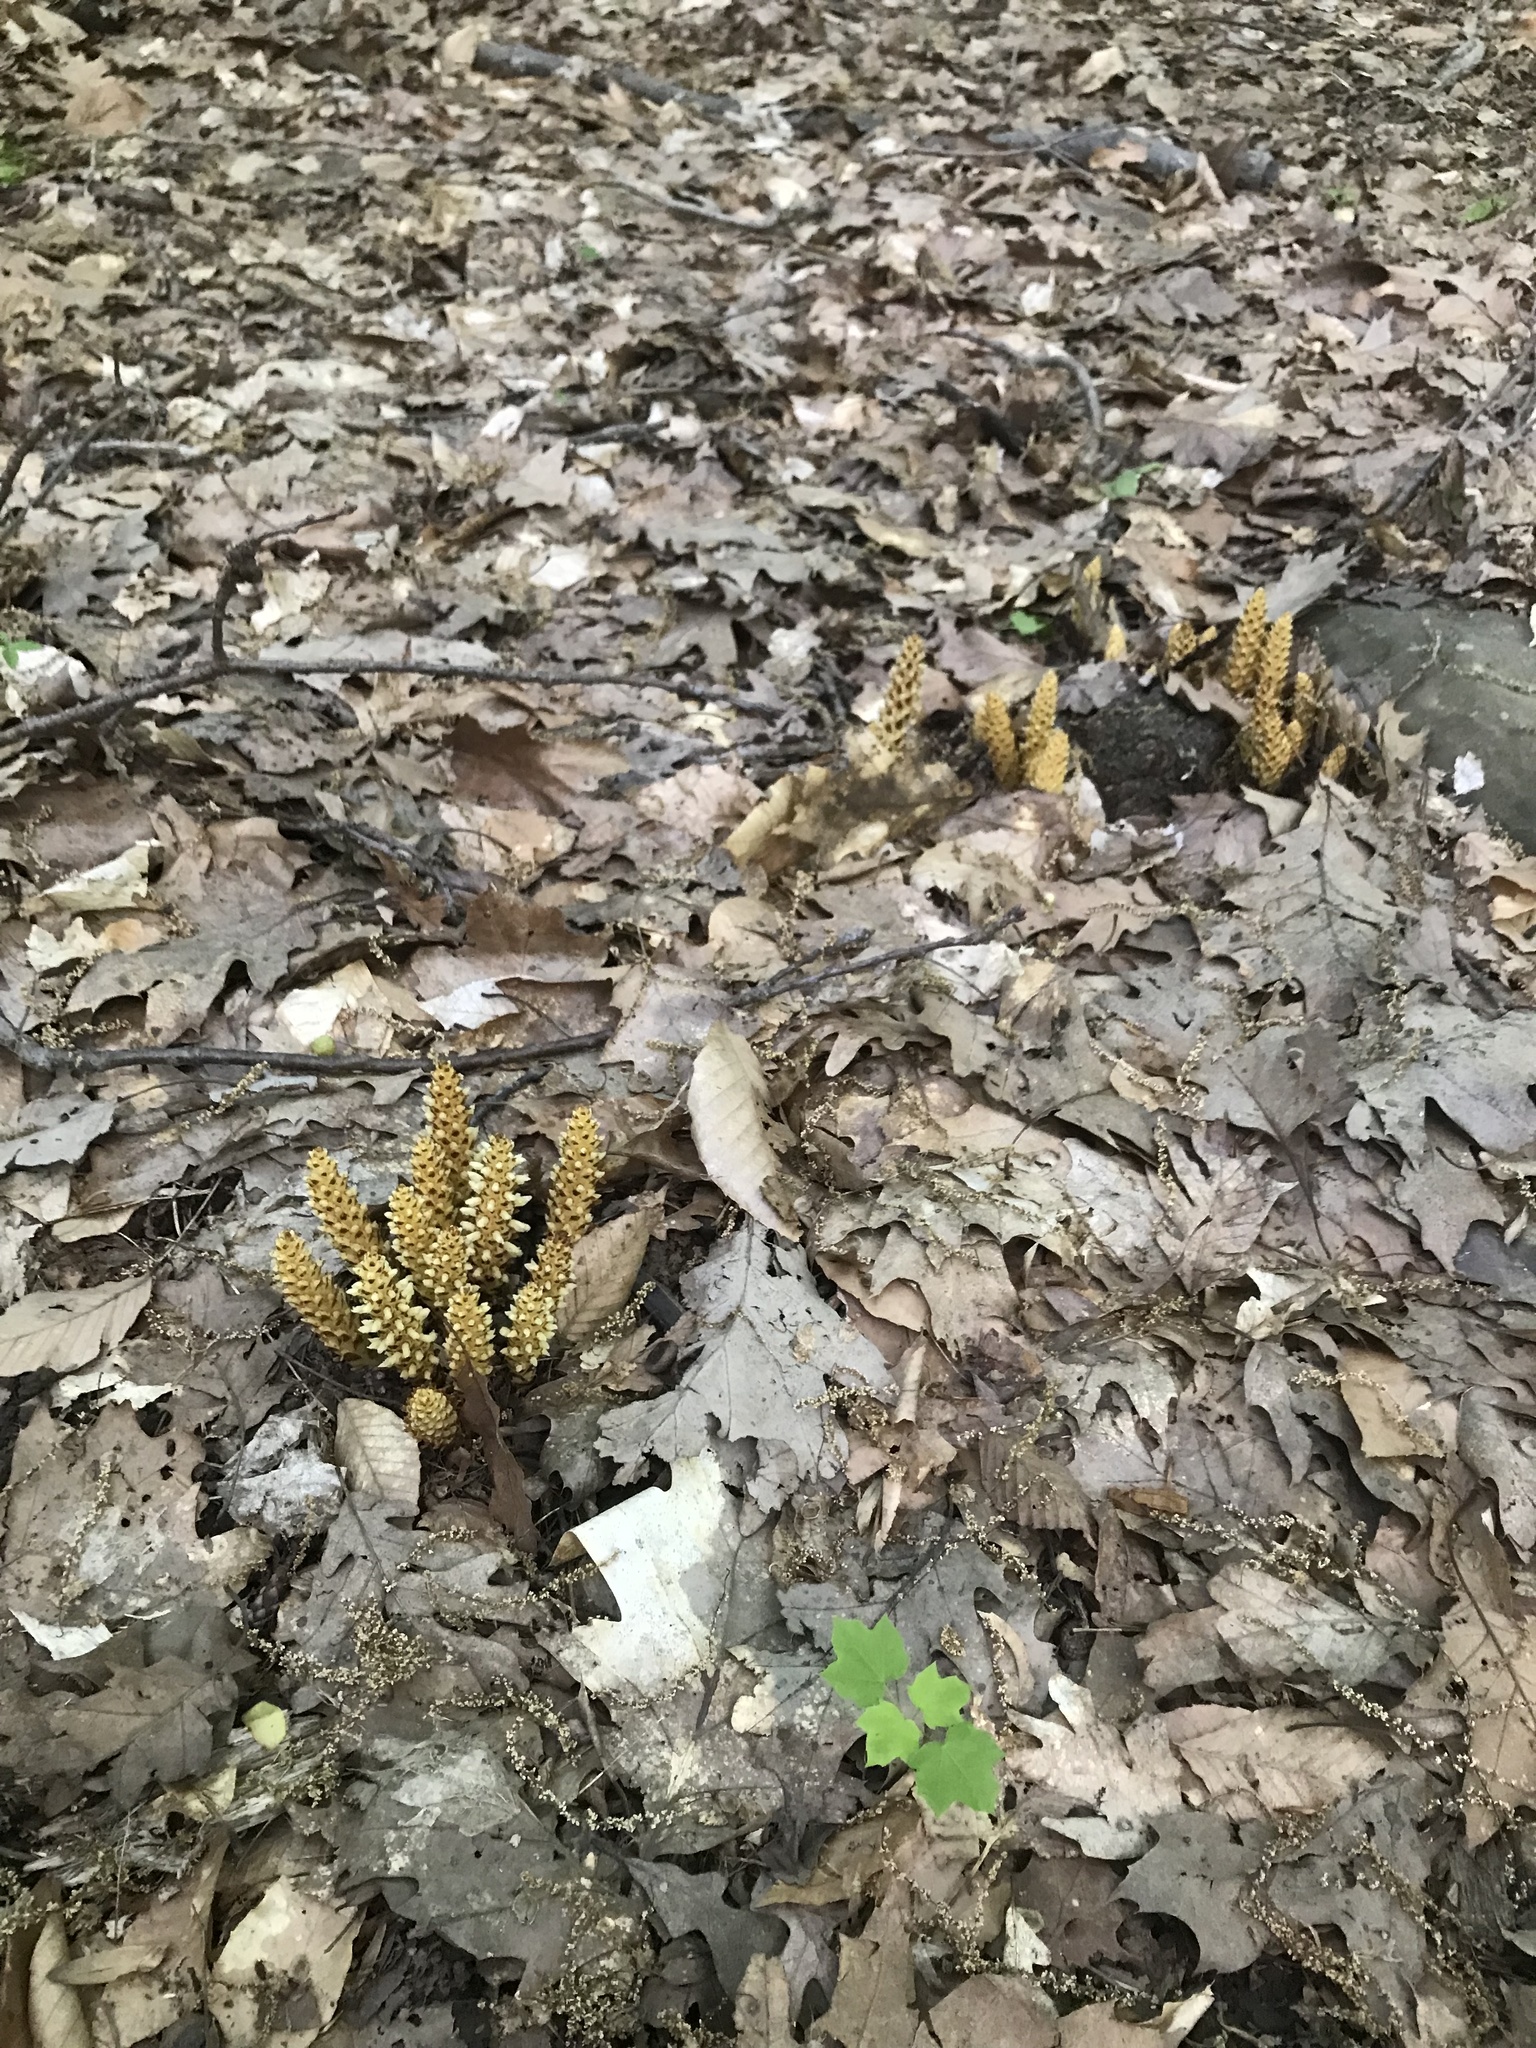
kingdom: Plantae
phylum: Tracheophyta
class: Magnoliopsida
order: Lamiales
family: Orobanchaceae
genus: Conopholis
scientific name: Conopholis americana
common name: American cancer-root
